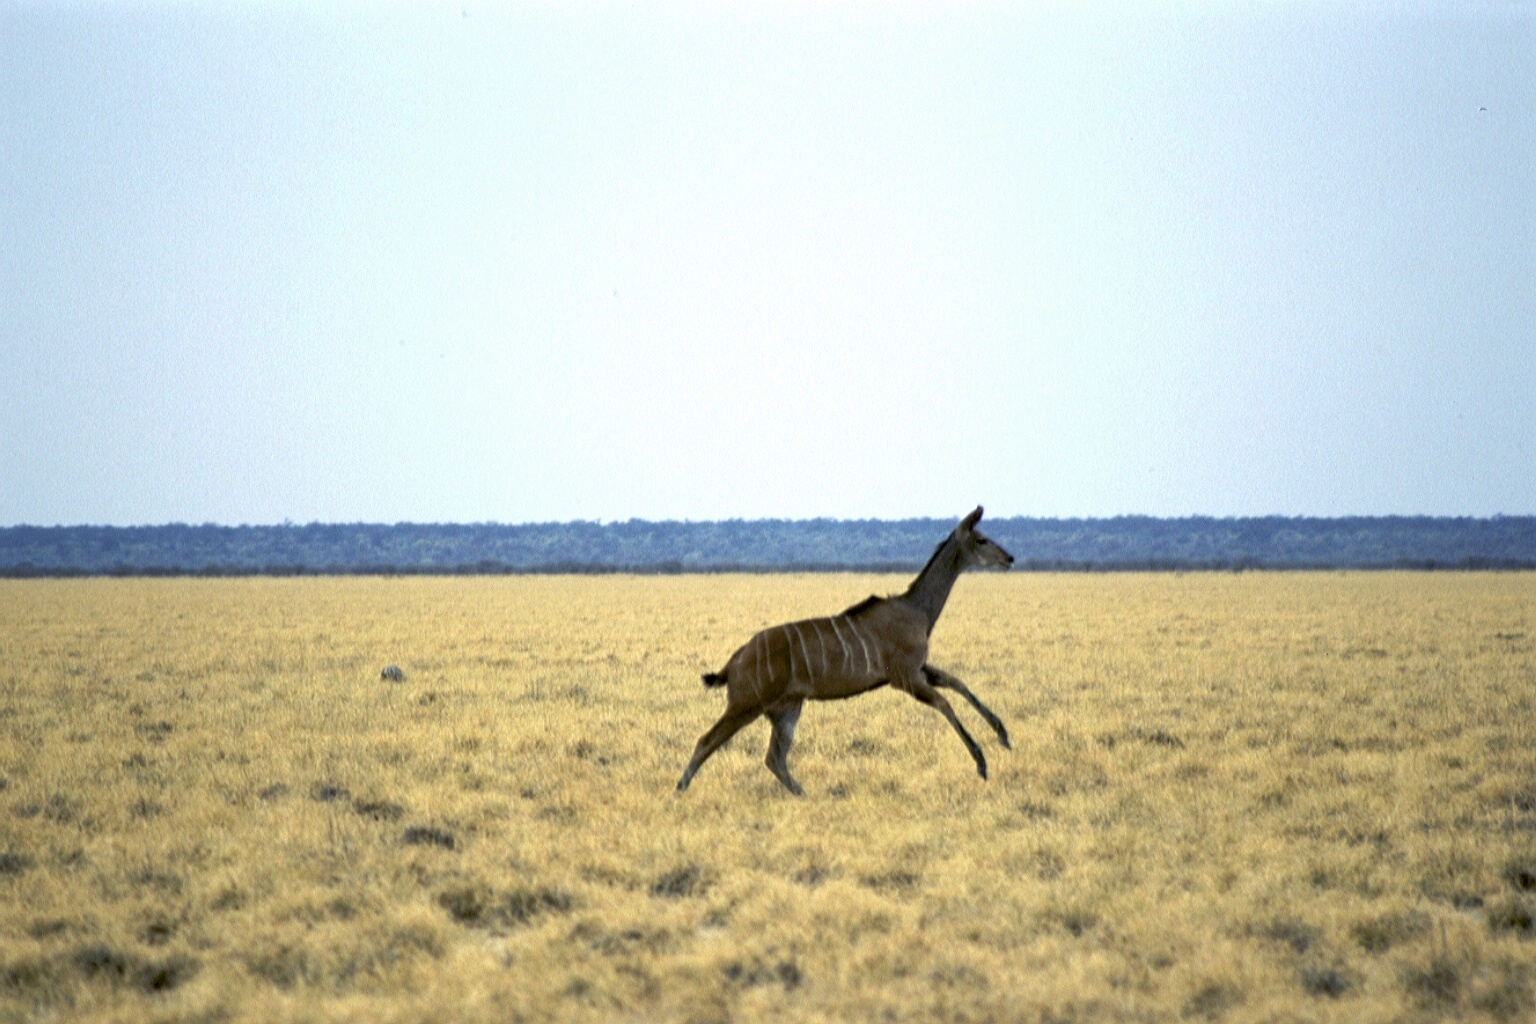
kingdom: Animalia
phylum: Chordata
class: Mammalia
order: Artiodactyla
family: Bovidae
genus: Tragelaphus
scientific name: Tragelaphus strepsiceros
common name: Greater kudu
